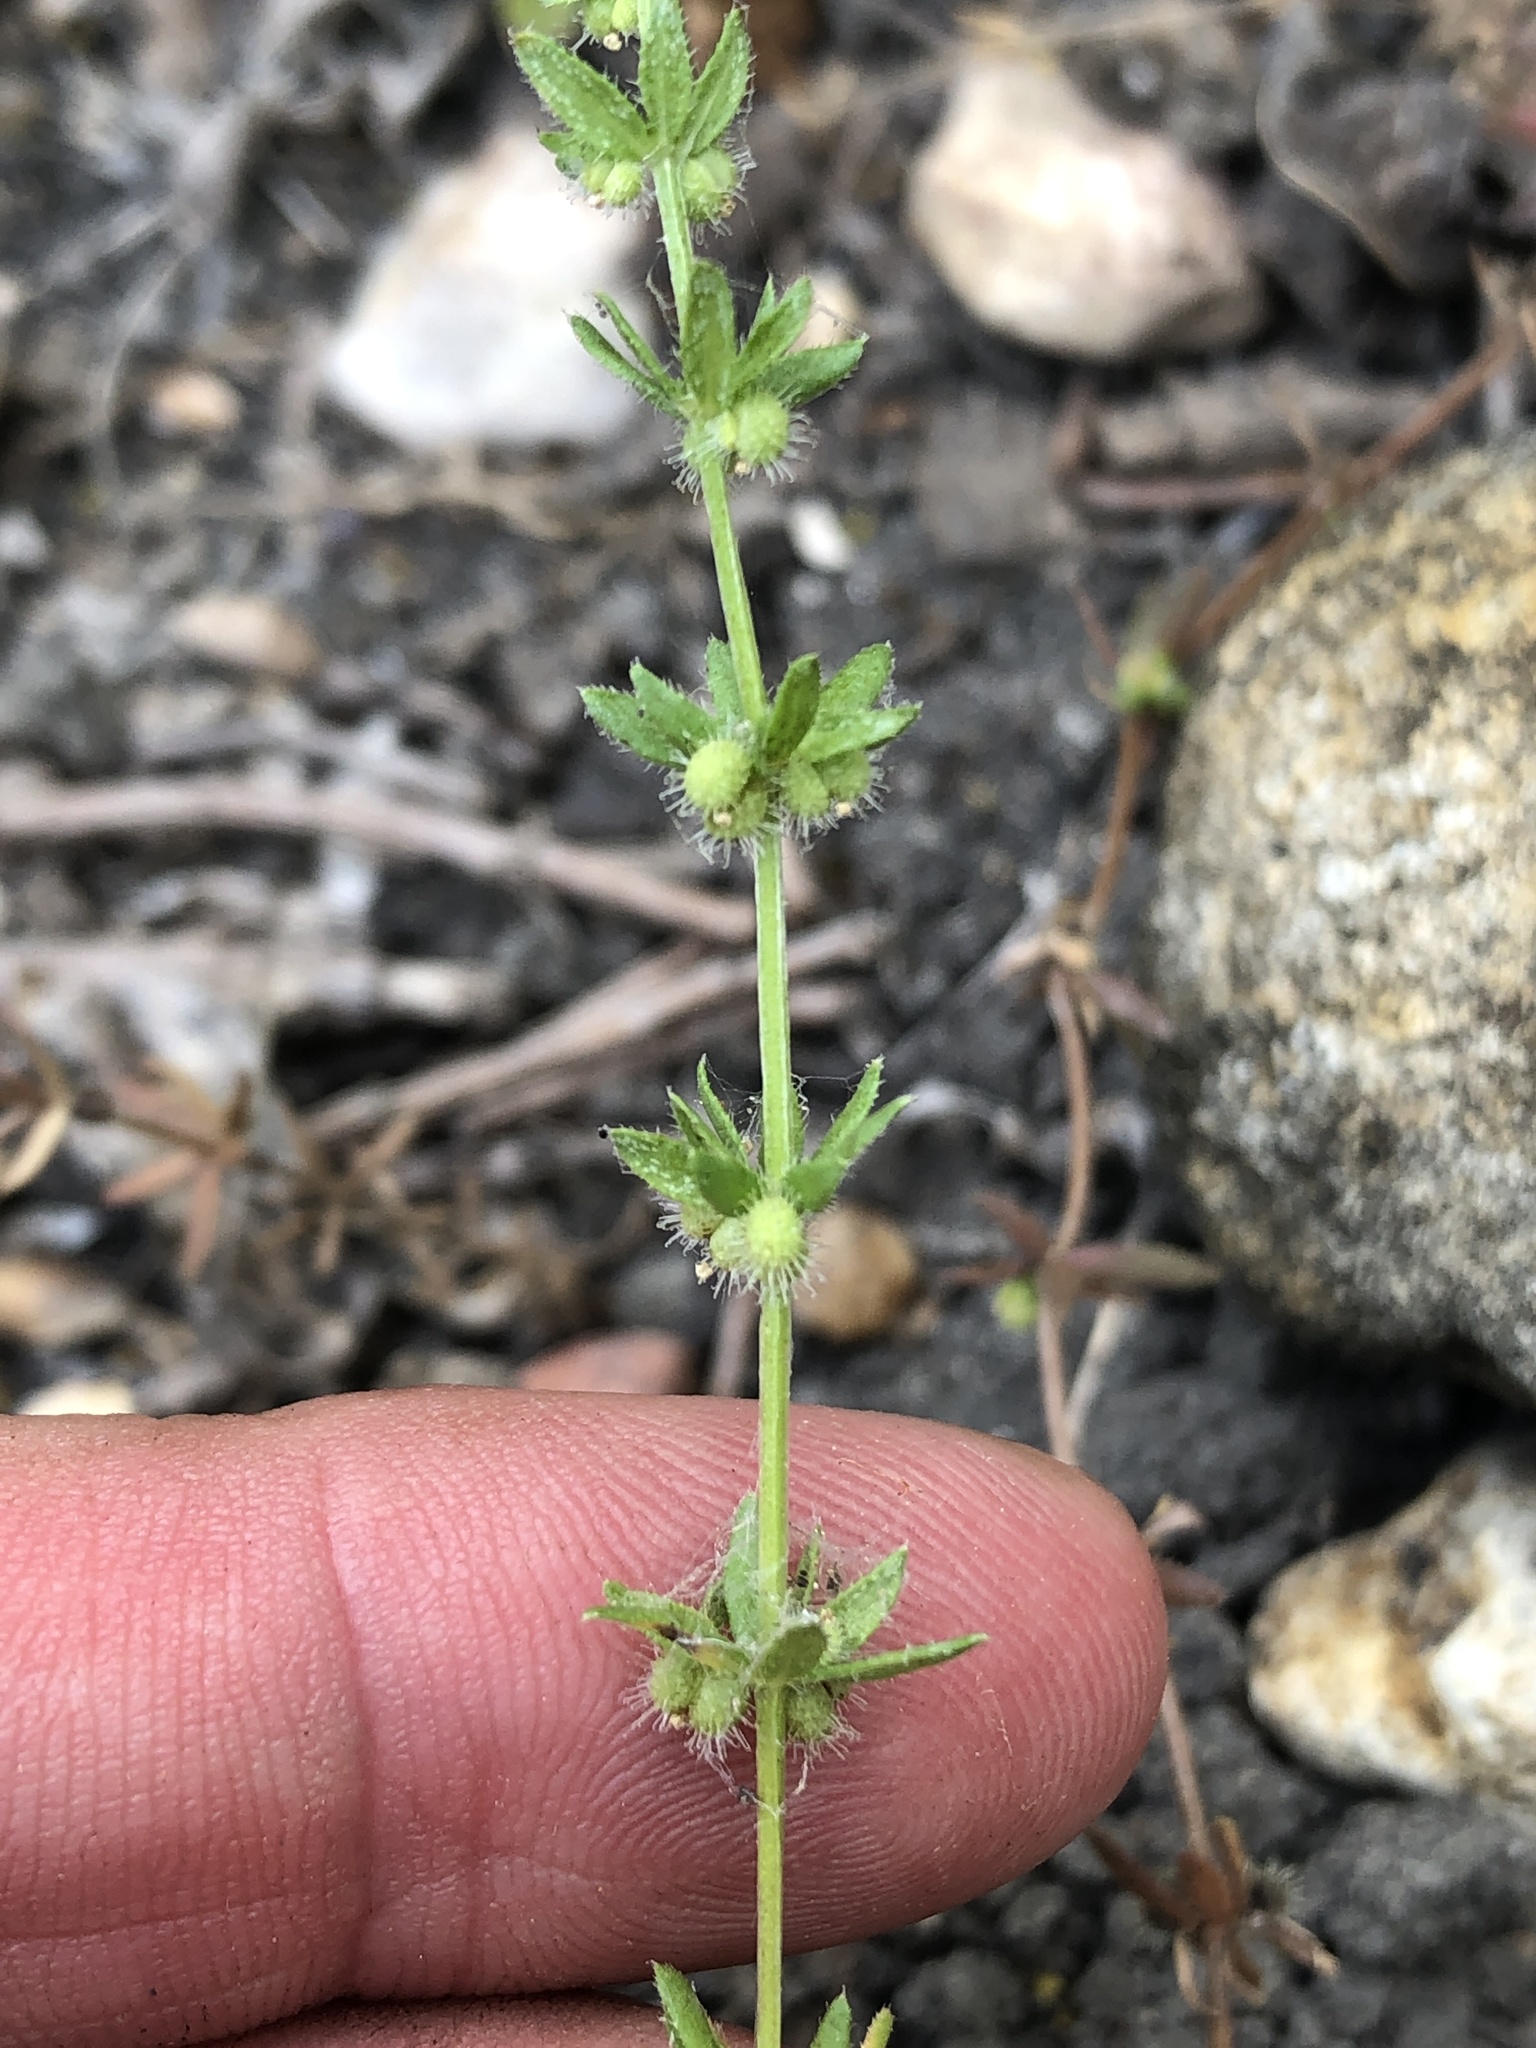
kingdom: Plantae
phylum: Tracheophyta
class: Magnoliopsida
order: Gentianales
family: Rubiaceae
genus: Galium
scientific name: Galium virgatum
